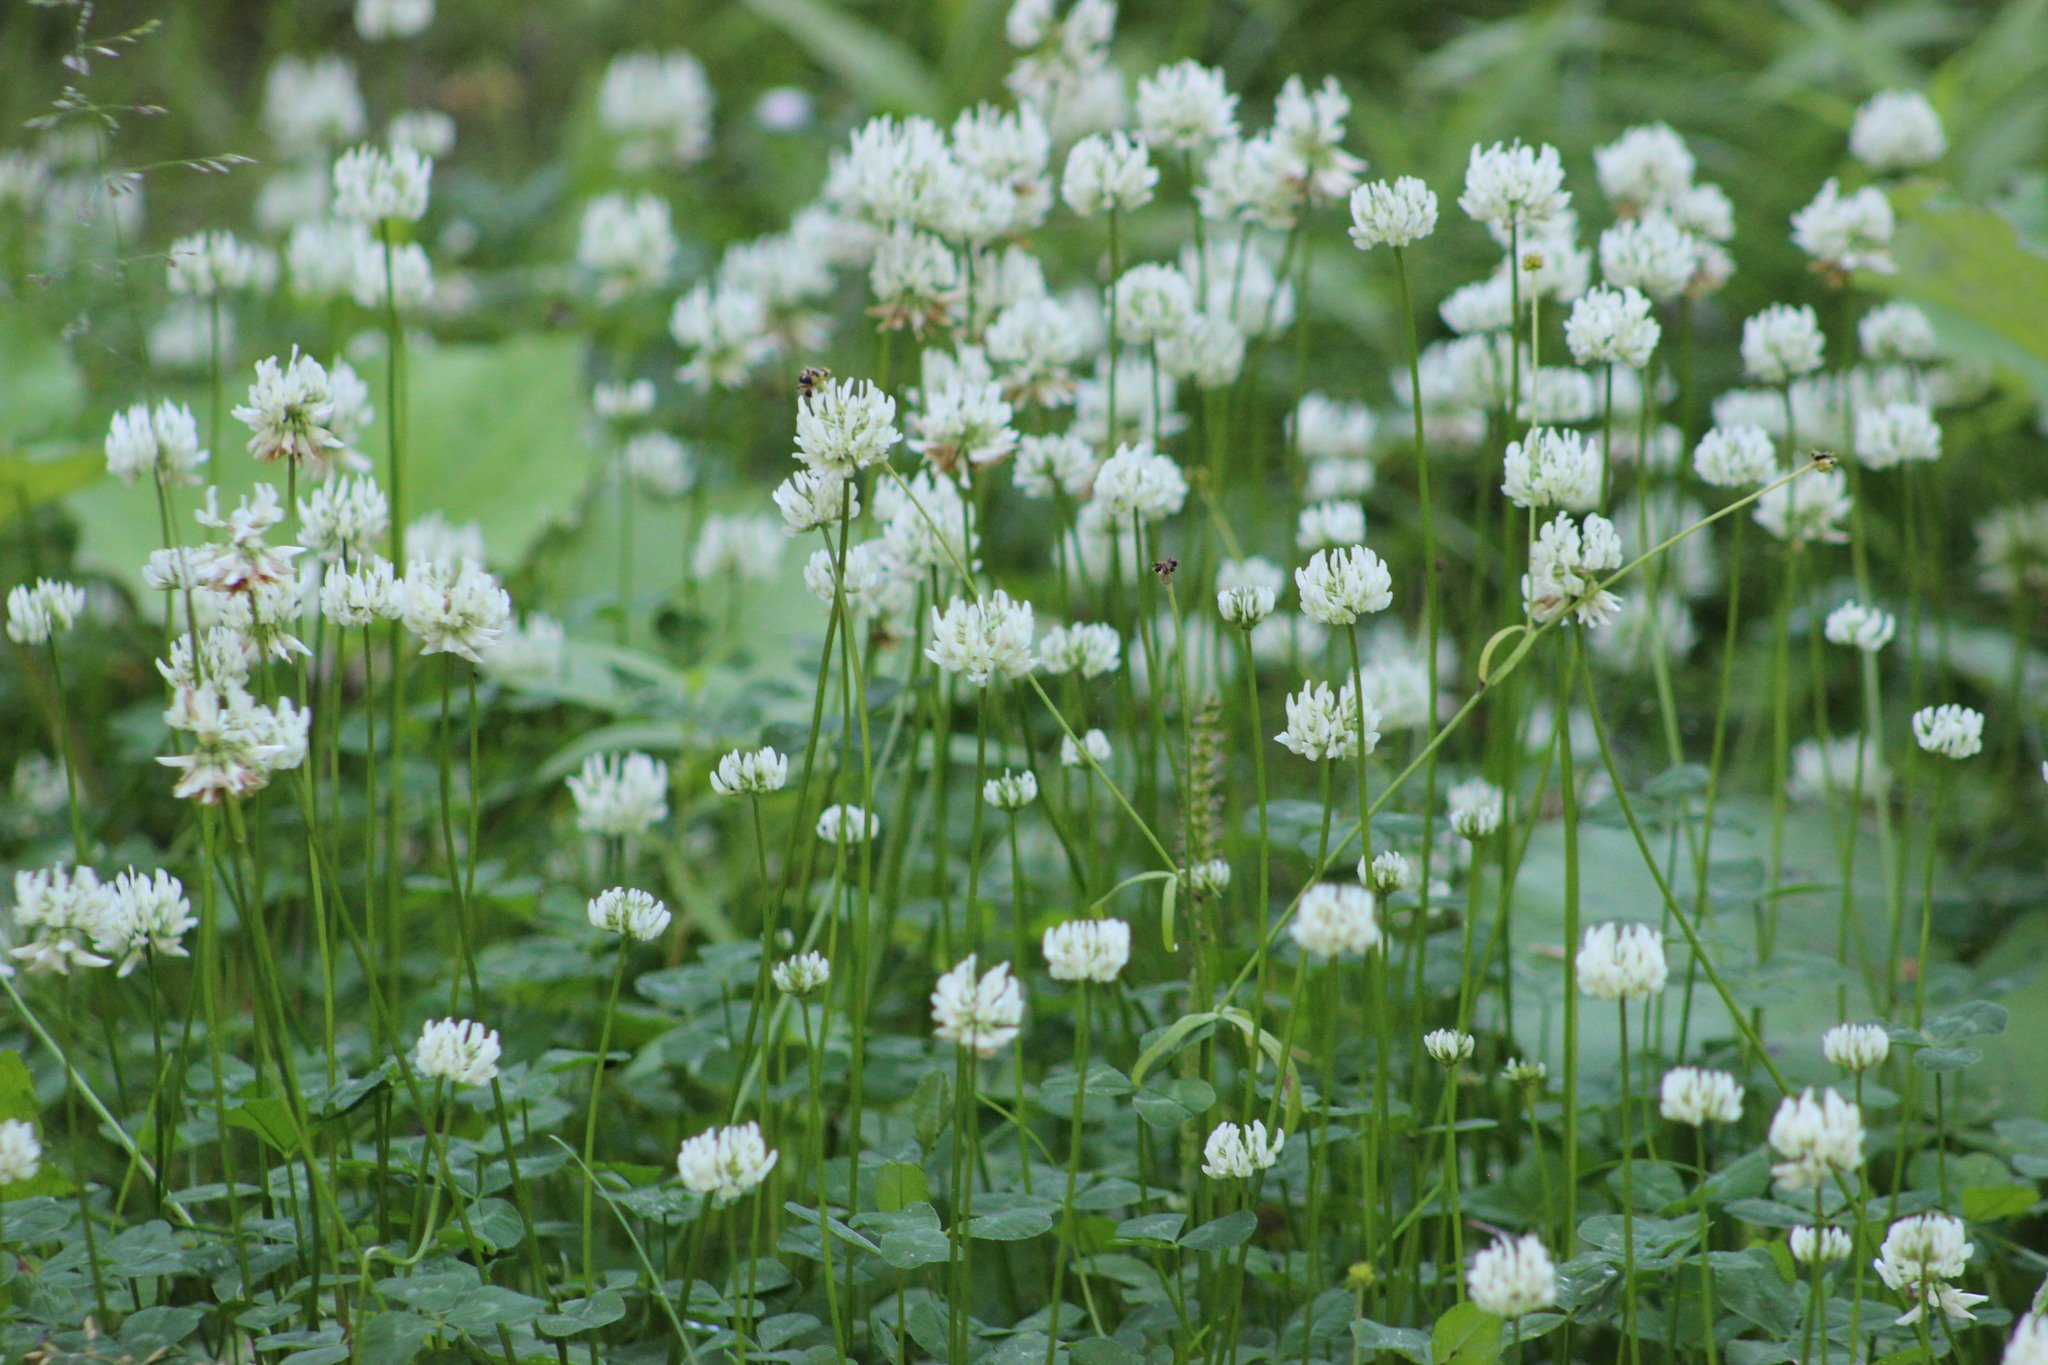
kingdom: Plantae
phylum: Tracheophyta
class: Magnoliopsida
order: Fabales
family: Fabaceae
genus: Trifolium
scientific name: Trifolium repens
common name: White clover
